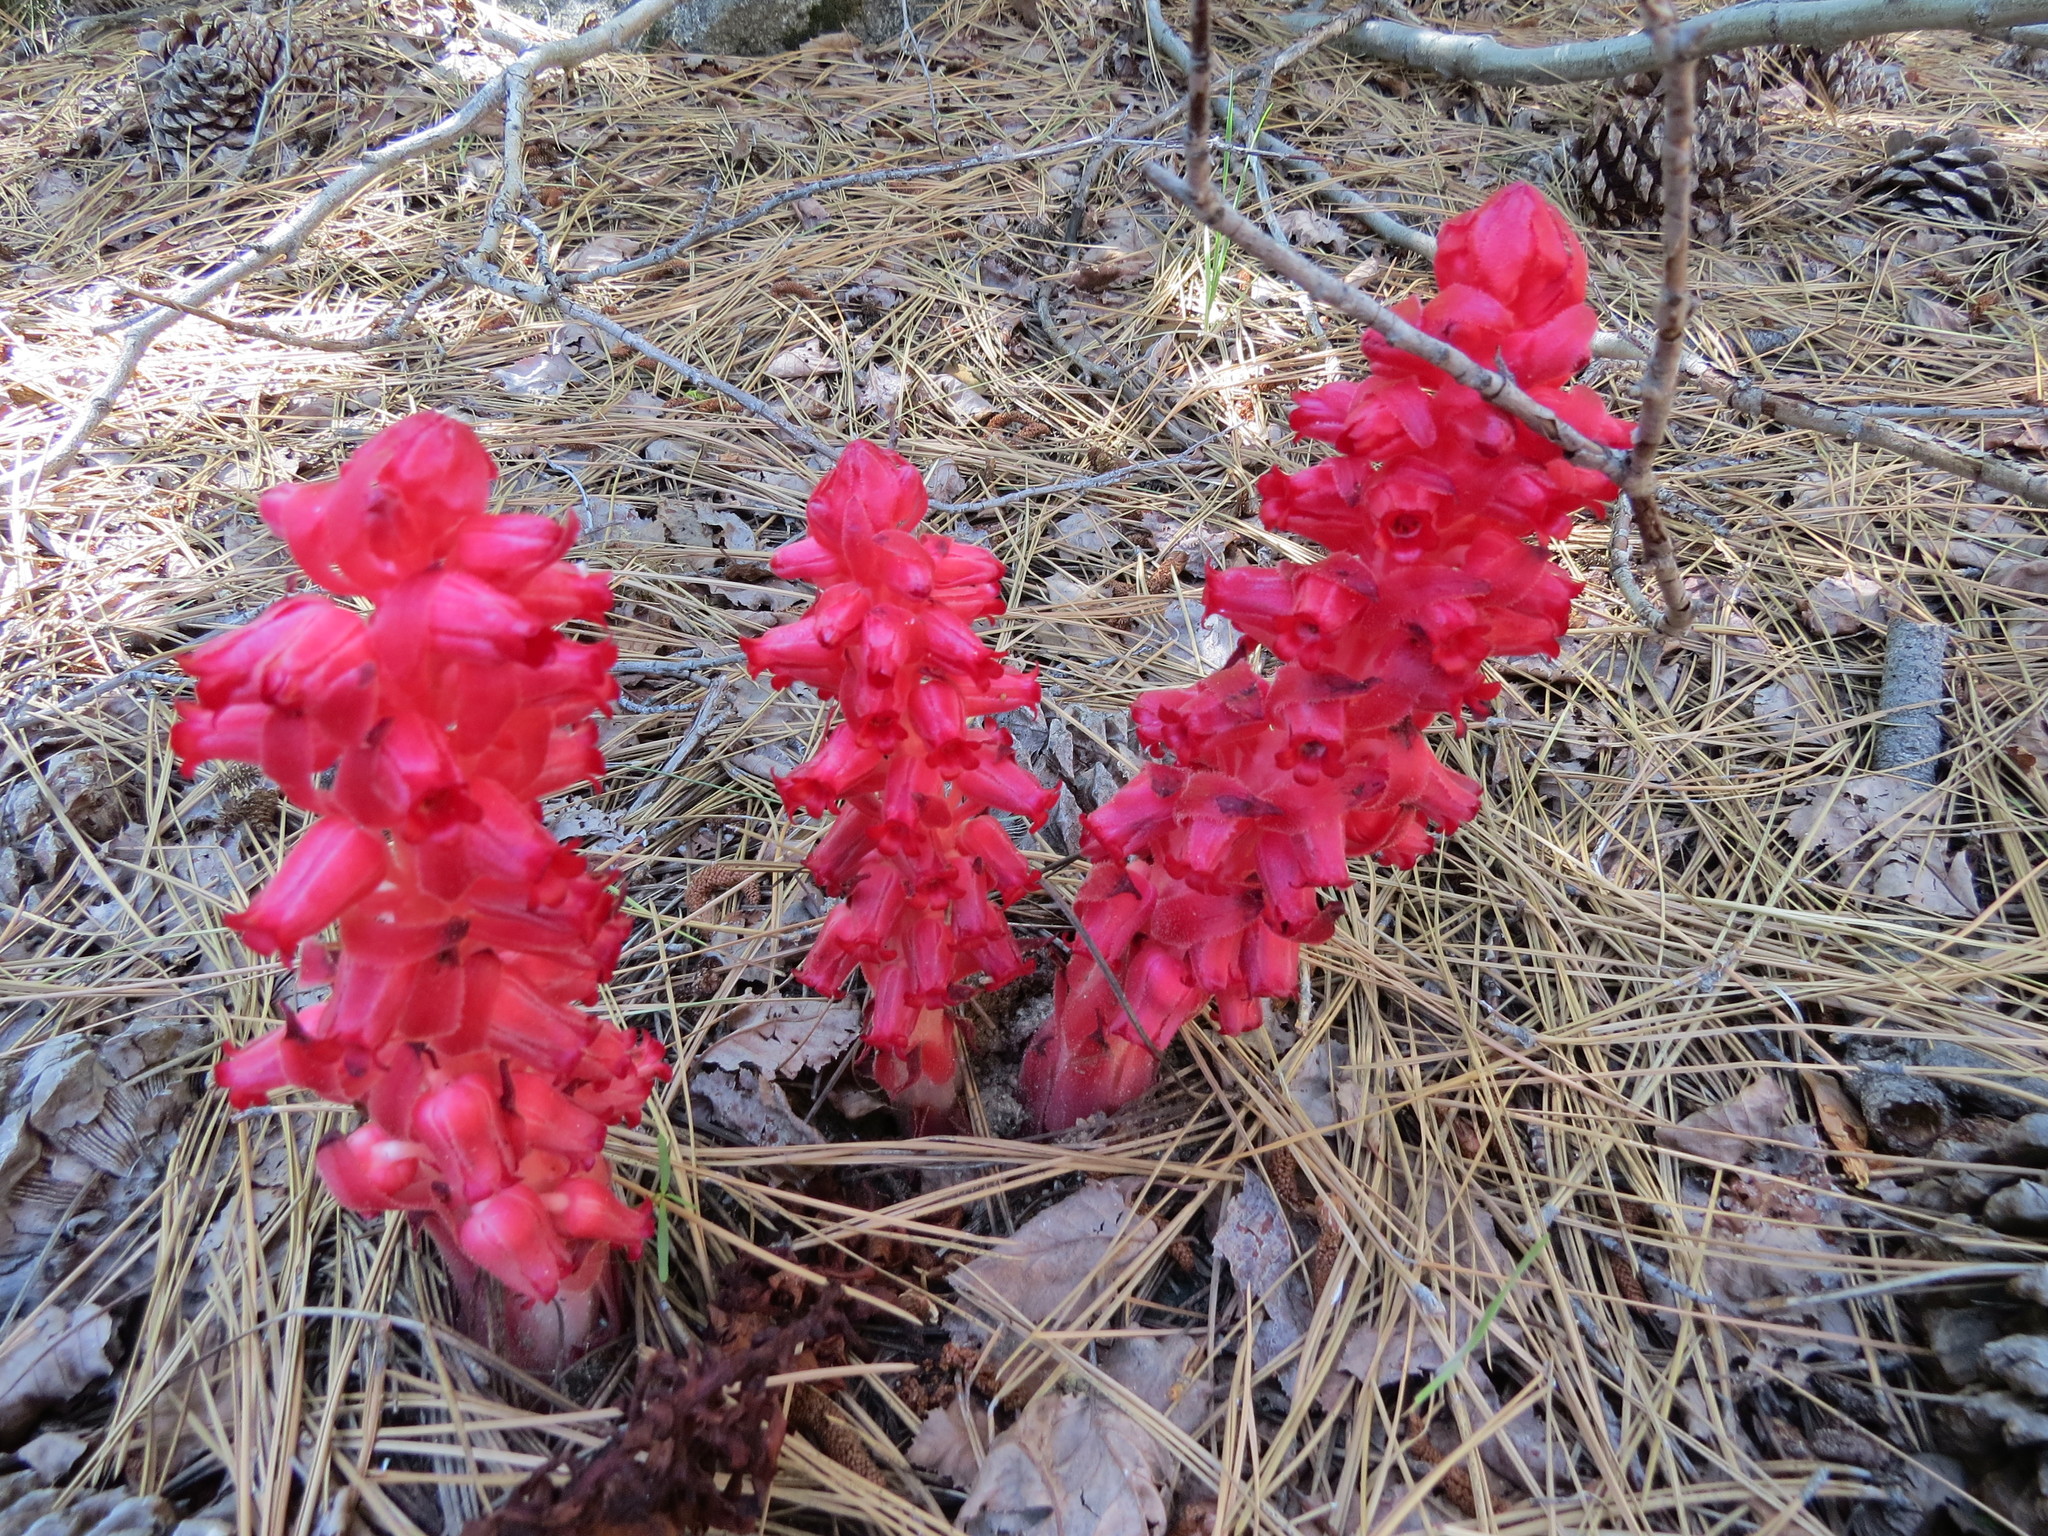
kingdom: Plantae
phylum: Tracheophyta
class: Magnoliopsida
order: Ericales
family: Ericaceae
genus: Sarcodes
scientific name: Sarcodes sanguinea
